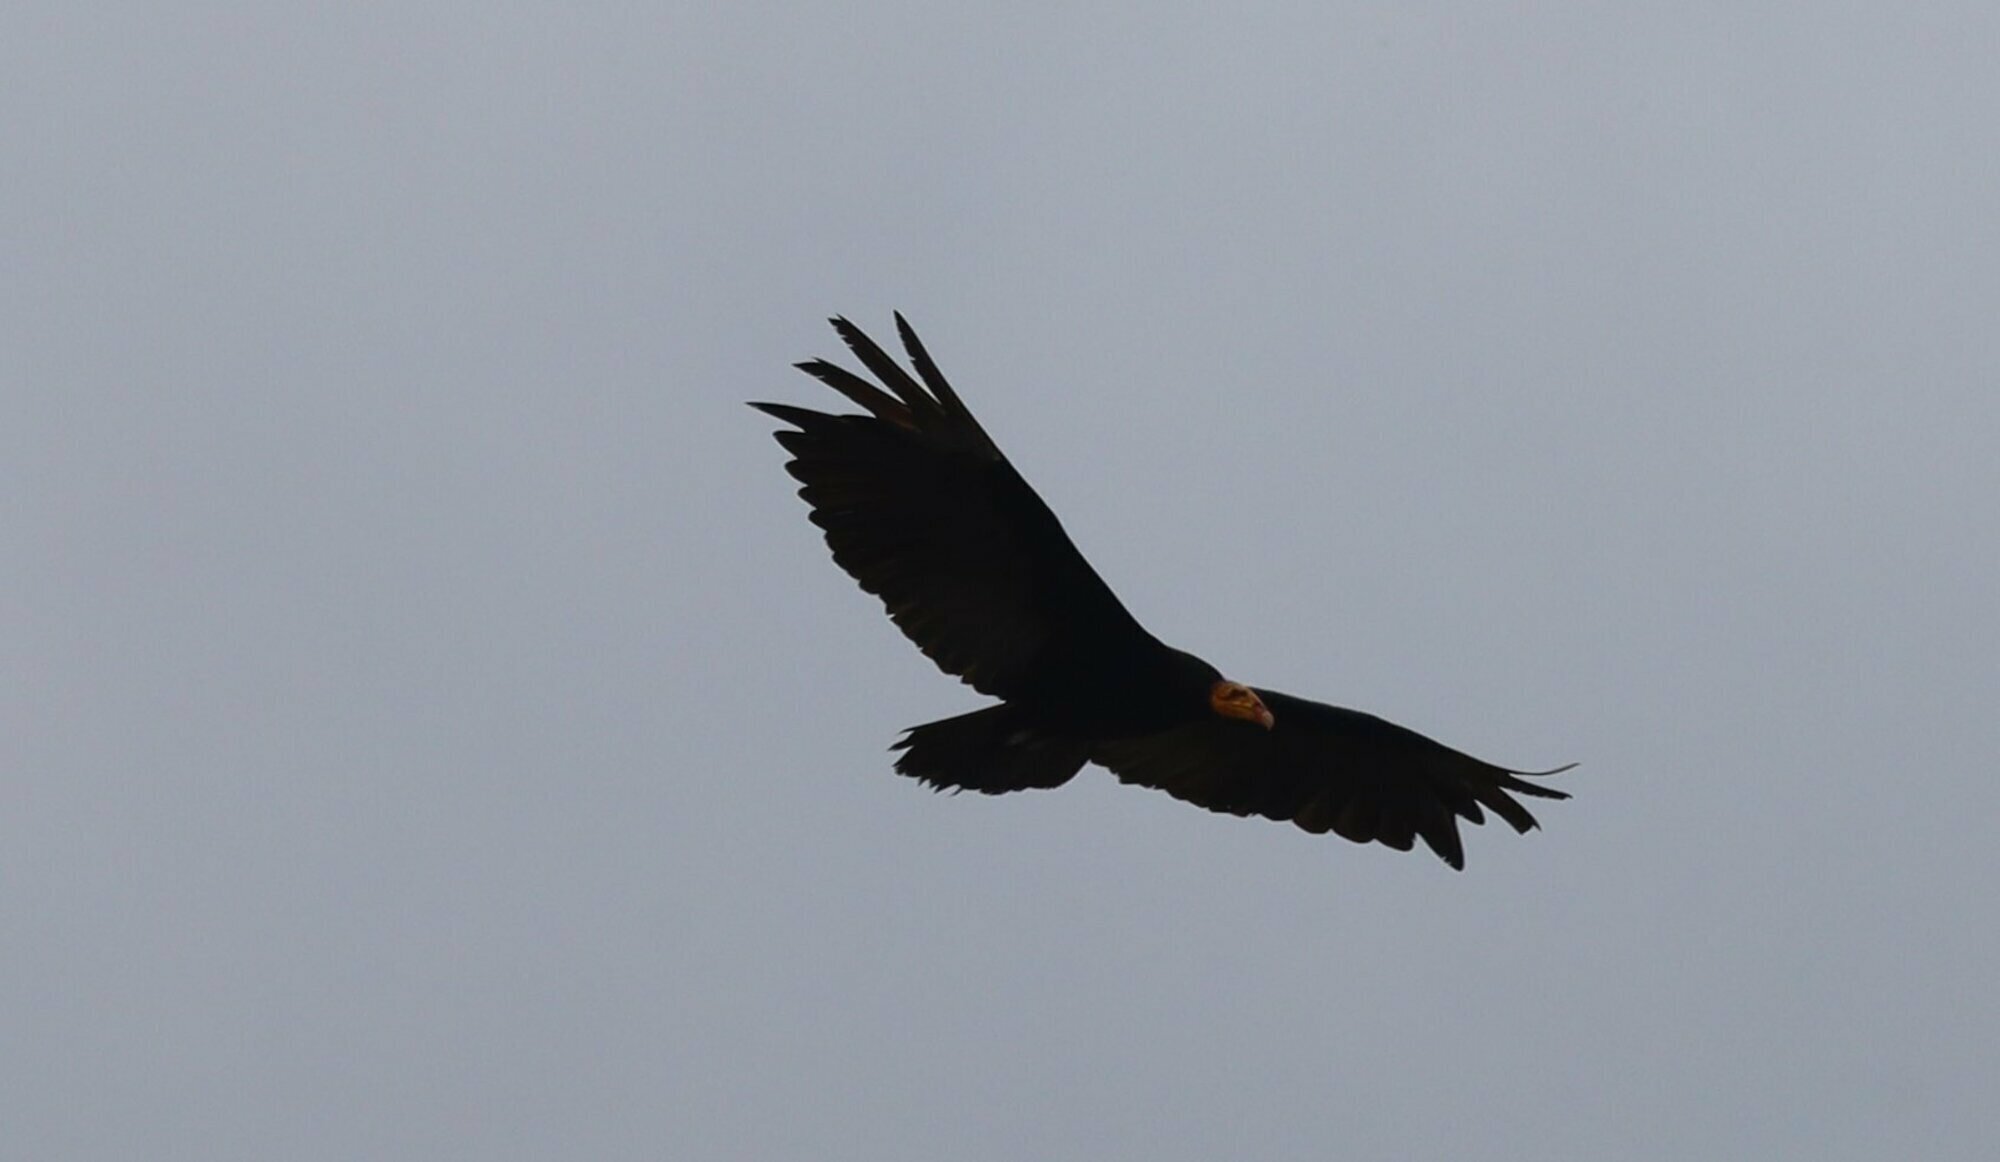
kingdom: Animalia
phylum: Chordata
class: Aves
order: Accipitriformes
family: Cathartidae
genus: Cathartes
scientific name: Cathartes melambrotus
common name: Greater yellow-headed vulture
